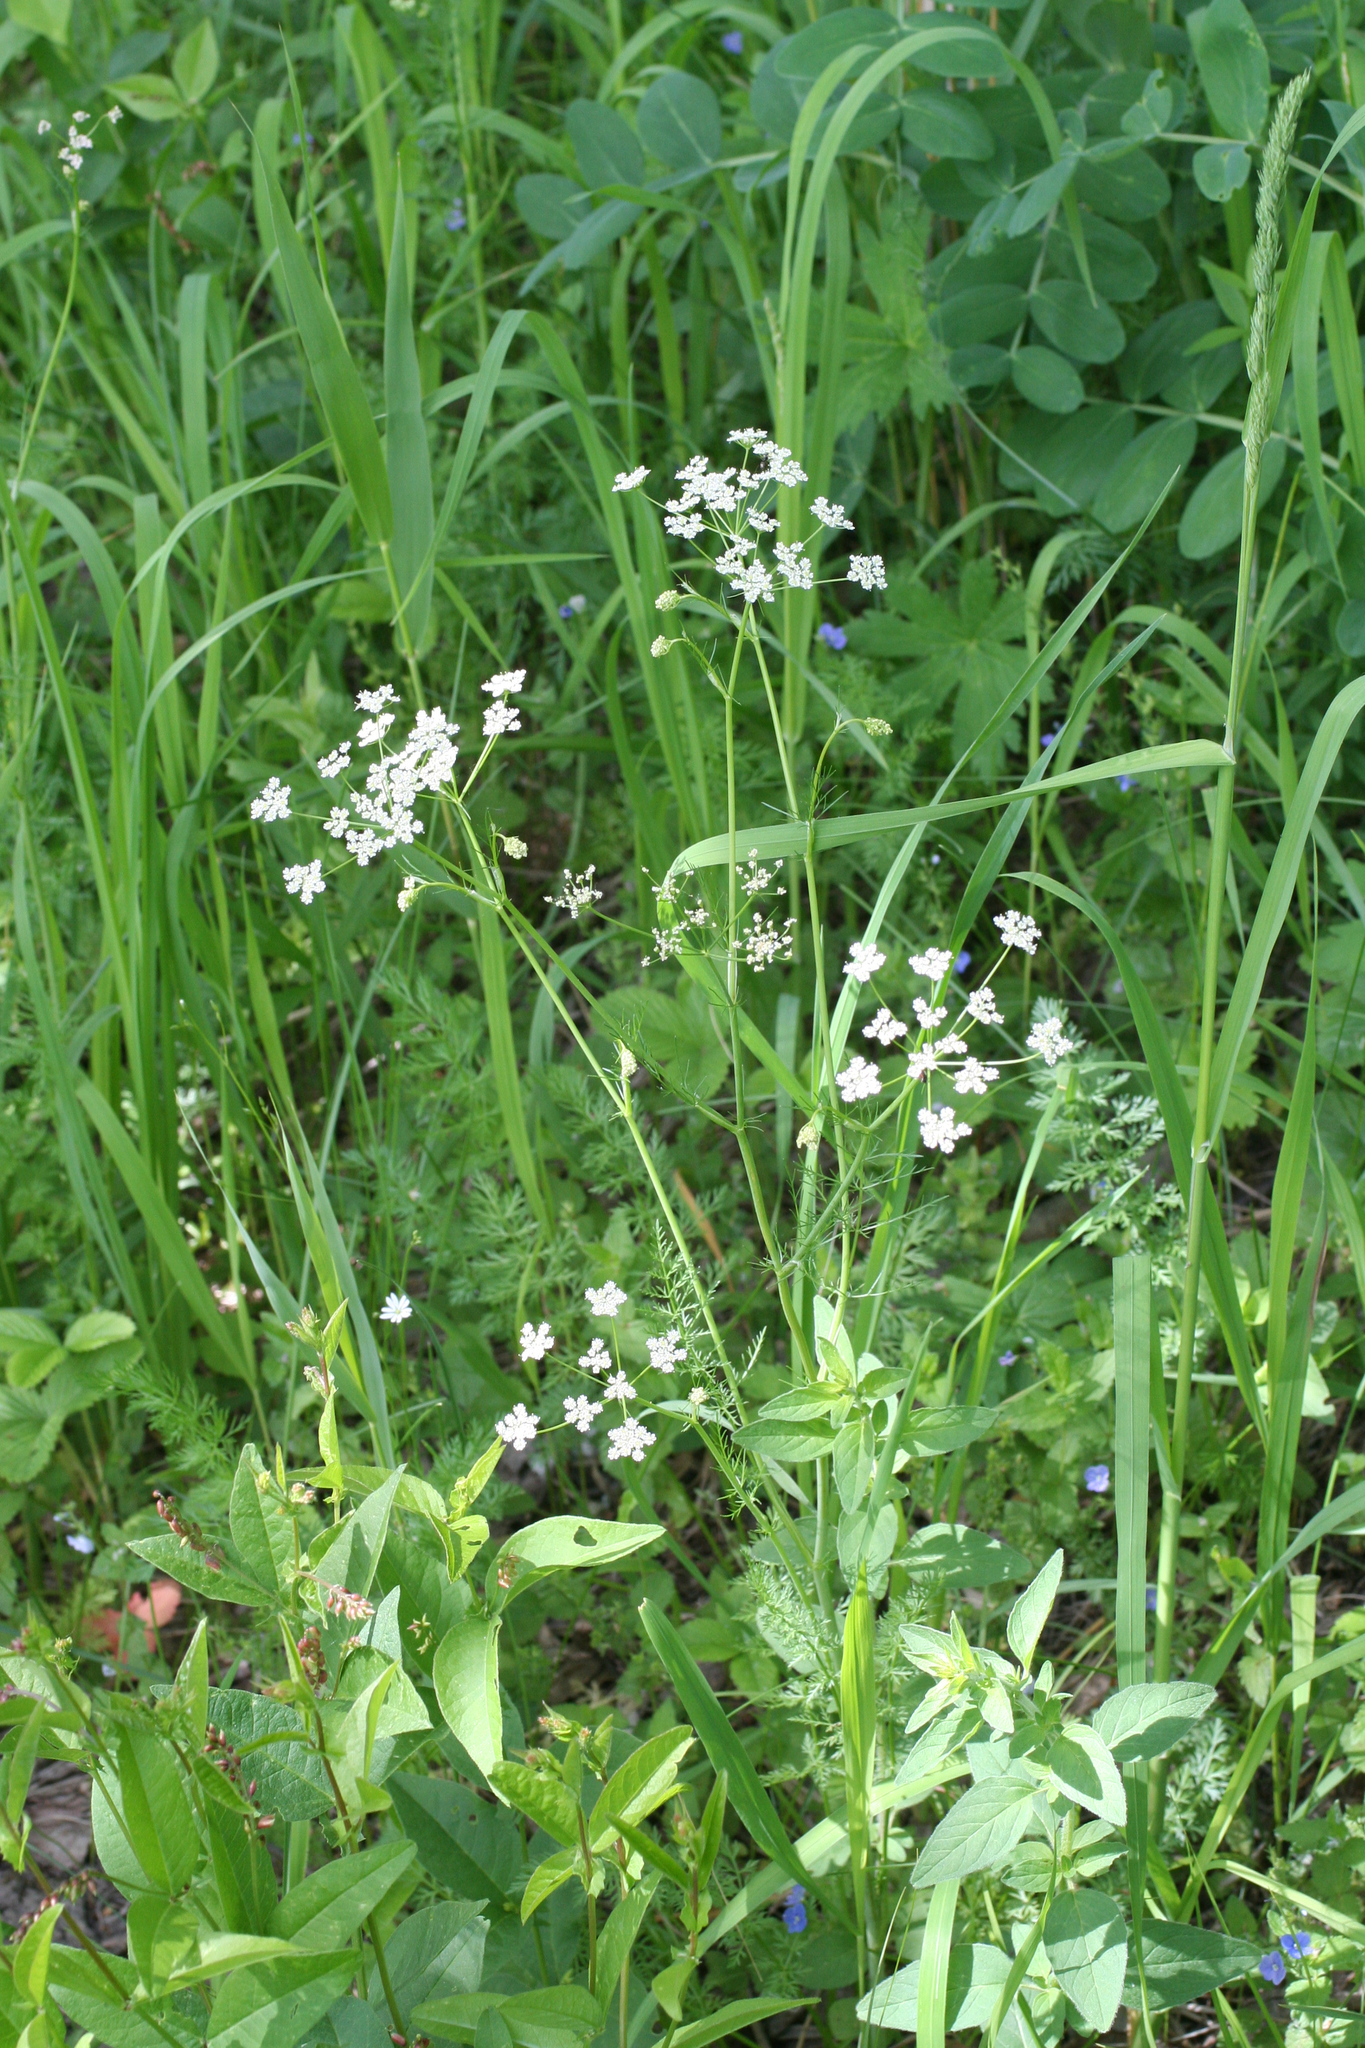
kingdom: Plantae
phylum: Tracheophyta
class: Magnoliopsida
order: Apiales
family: Apiaceae
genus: Carum
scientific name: Carum carvi
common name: Caraway
